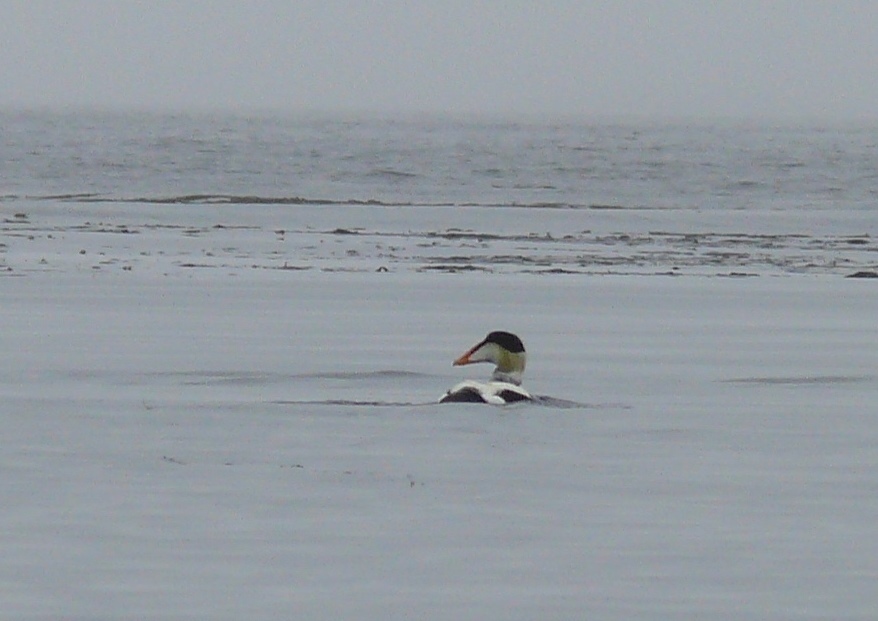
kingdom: Animalia
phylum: Chordata
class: Aves
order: Anseriformes
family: Anatidae
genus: Somateria
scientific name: Somateria mollissima
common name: Common eider
